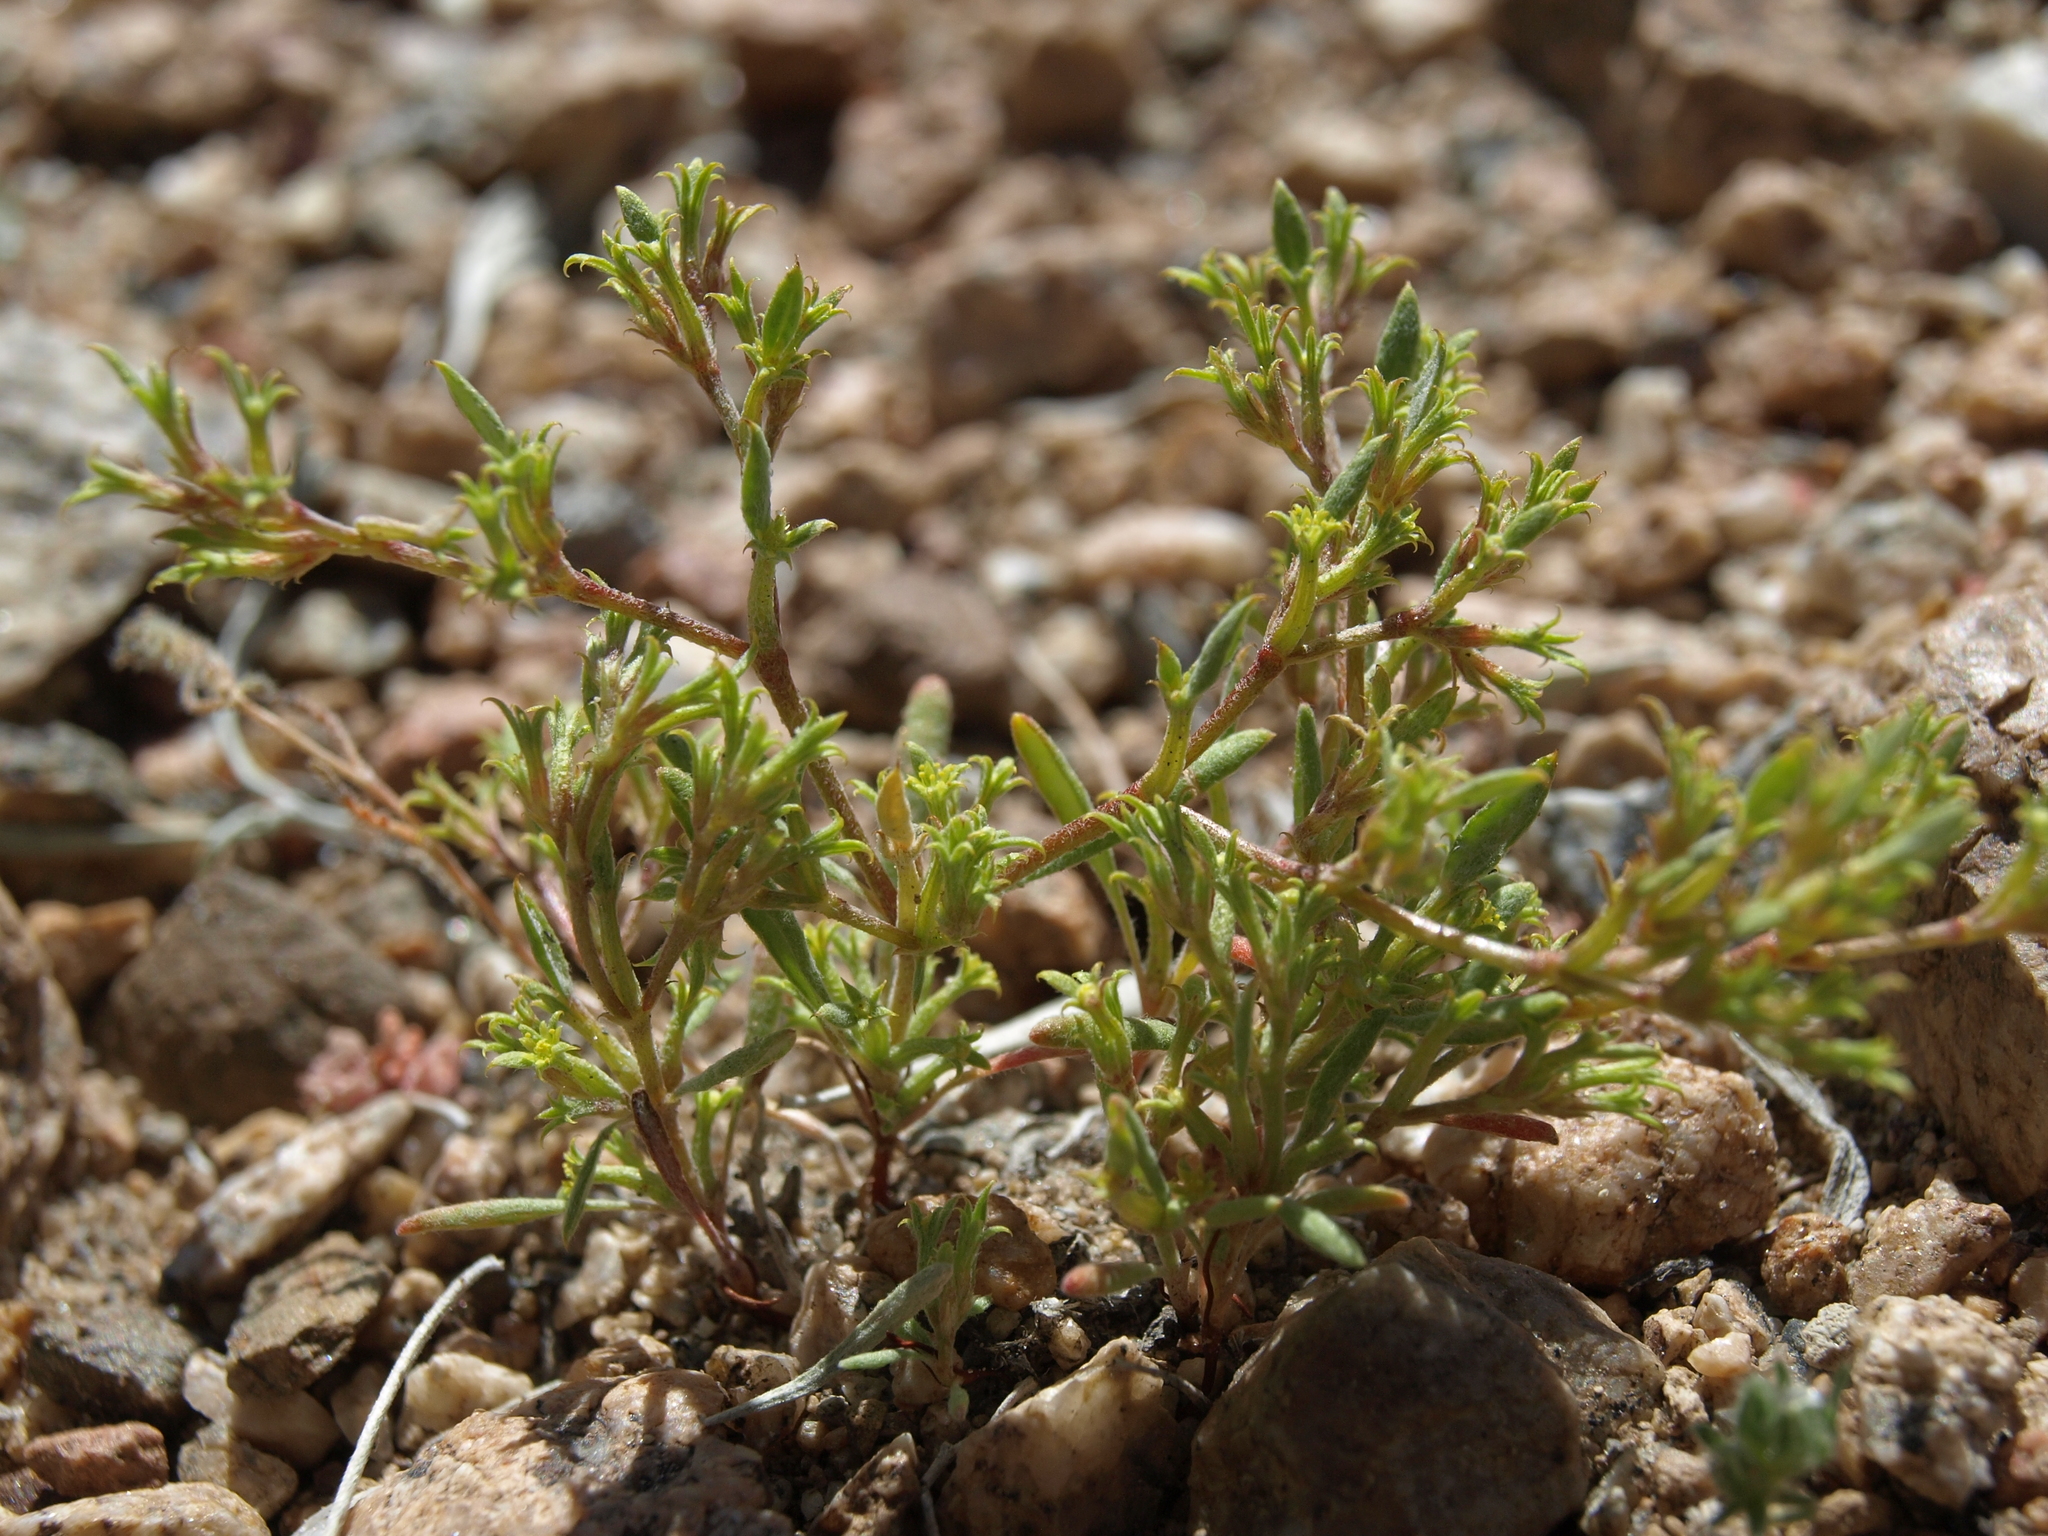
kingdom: Plantae
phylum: Tracheophyta
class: Magnoliopsida
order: Caryophyllales
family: Polygonaceae
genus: Chorizanthe
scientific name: Chorizanthe watsonii
